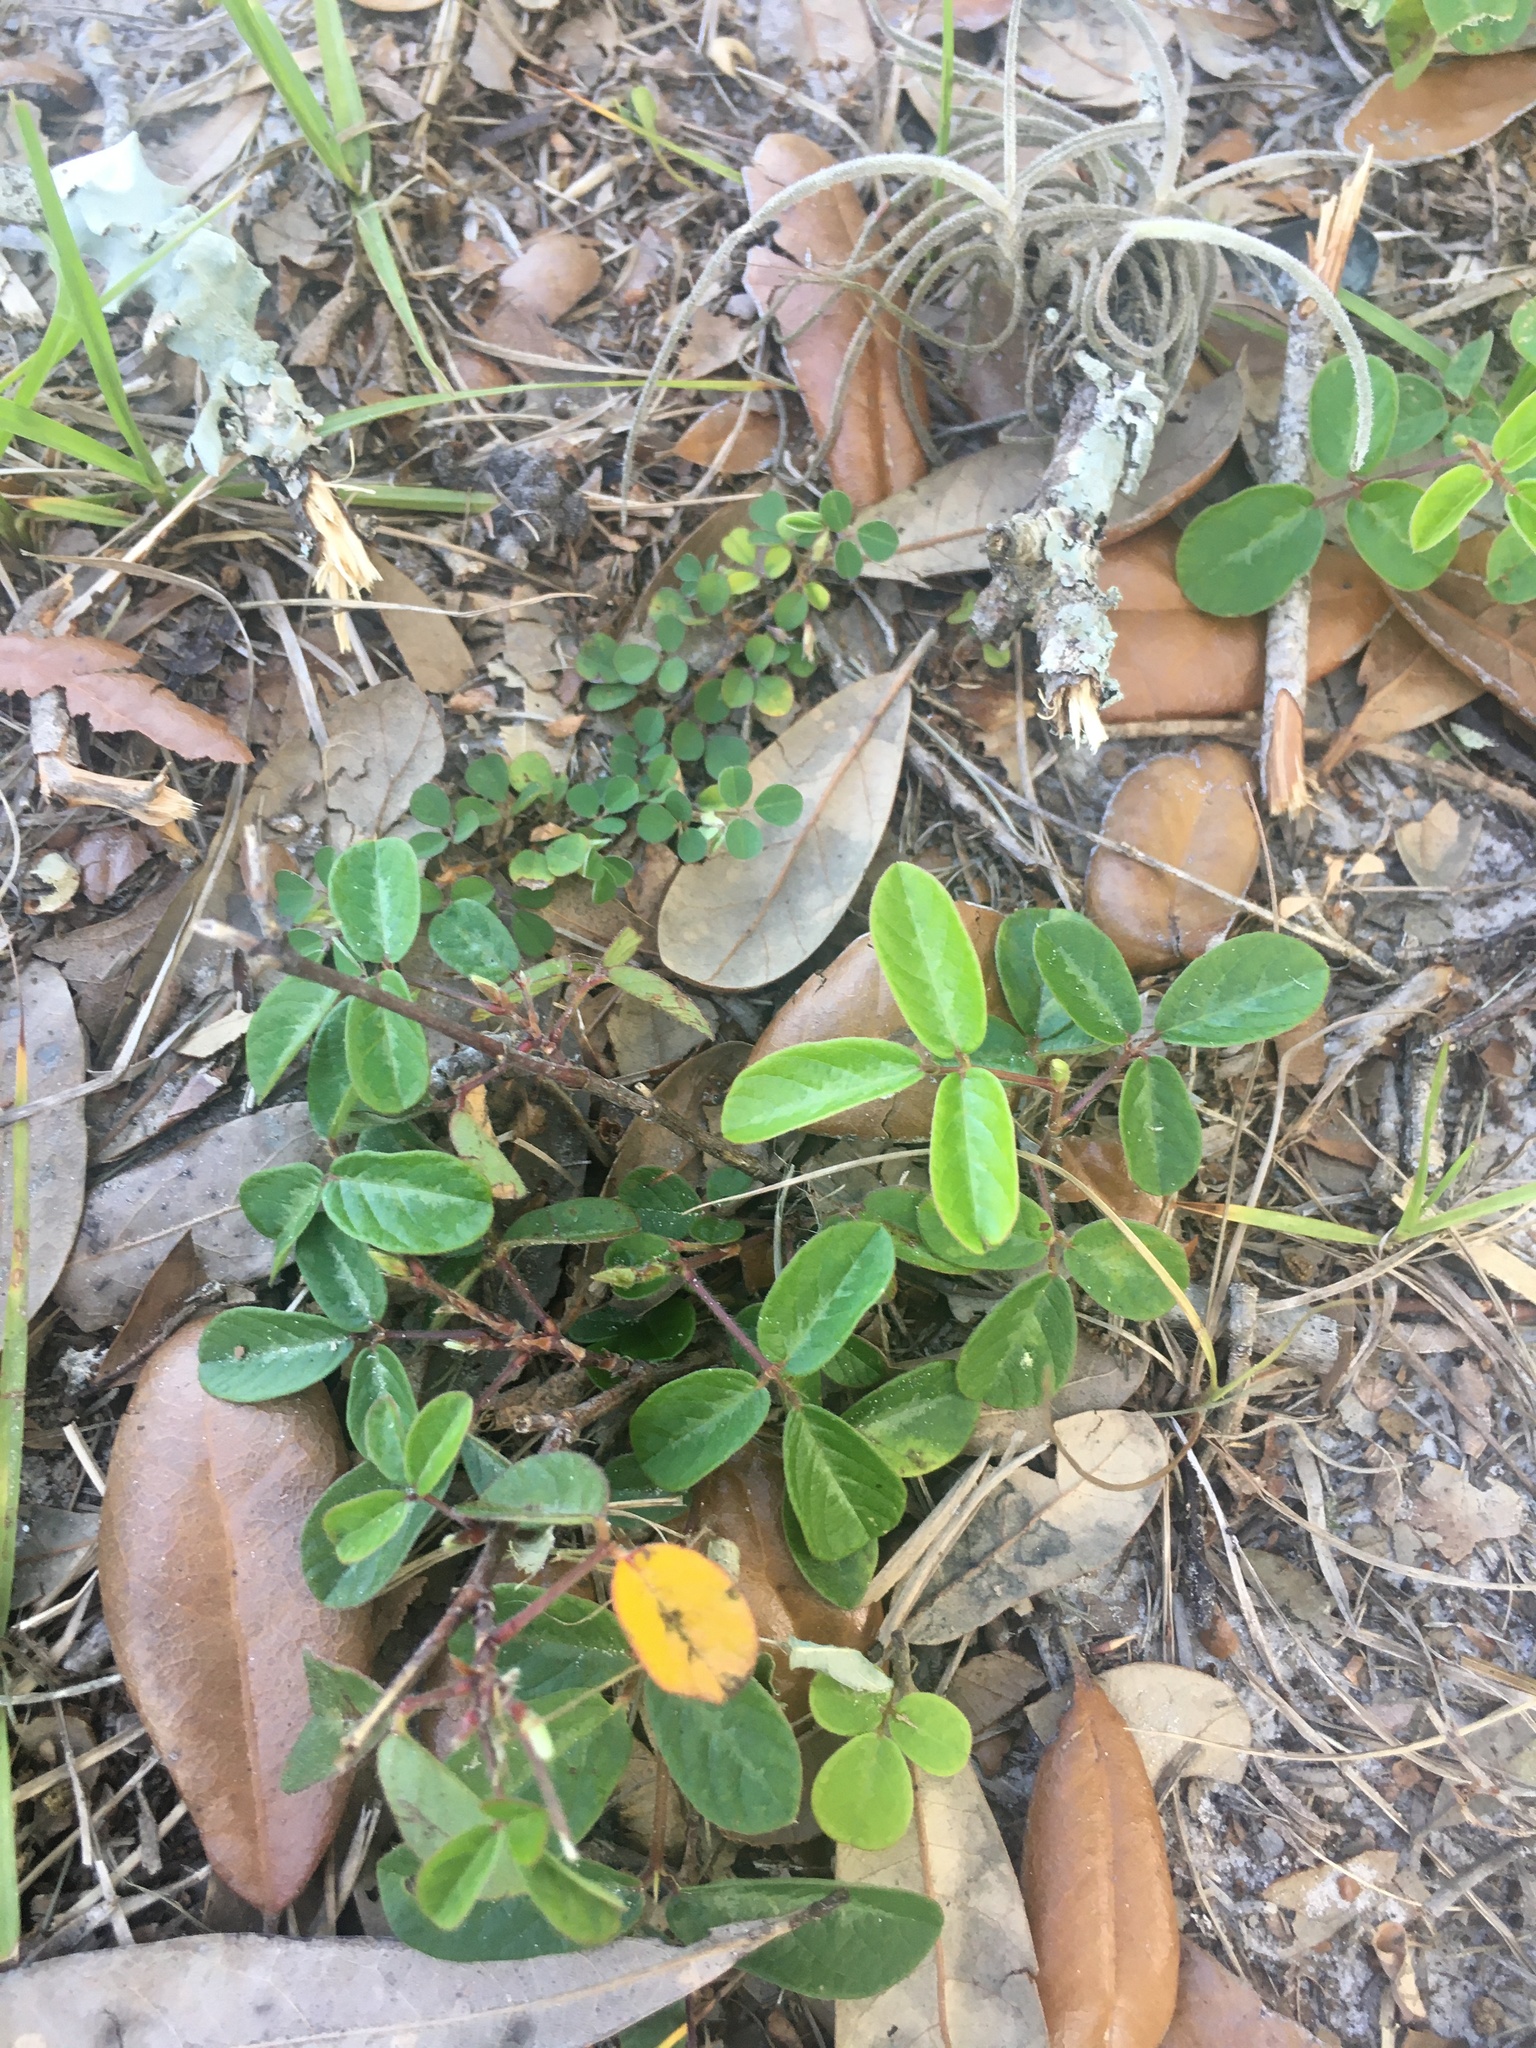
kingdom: Plantae
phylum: Tracheophyta
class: Magnoliopsida
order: Fabales
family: Fabaceae
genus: Desmodium
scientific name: Desmodium incanum
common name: Tickclover
